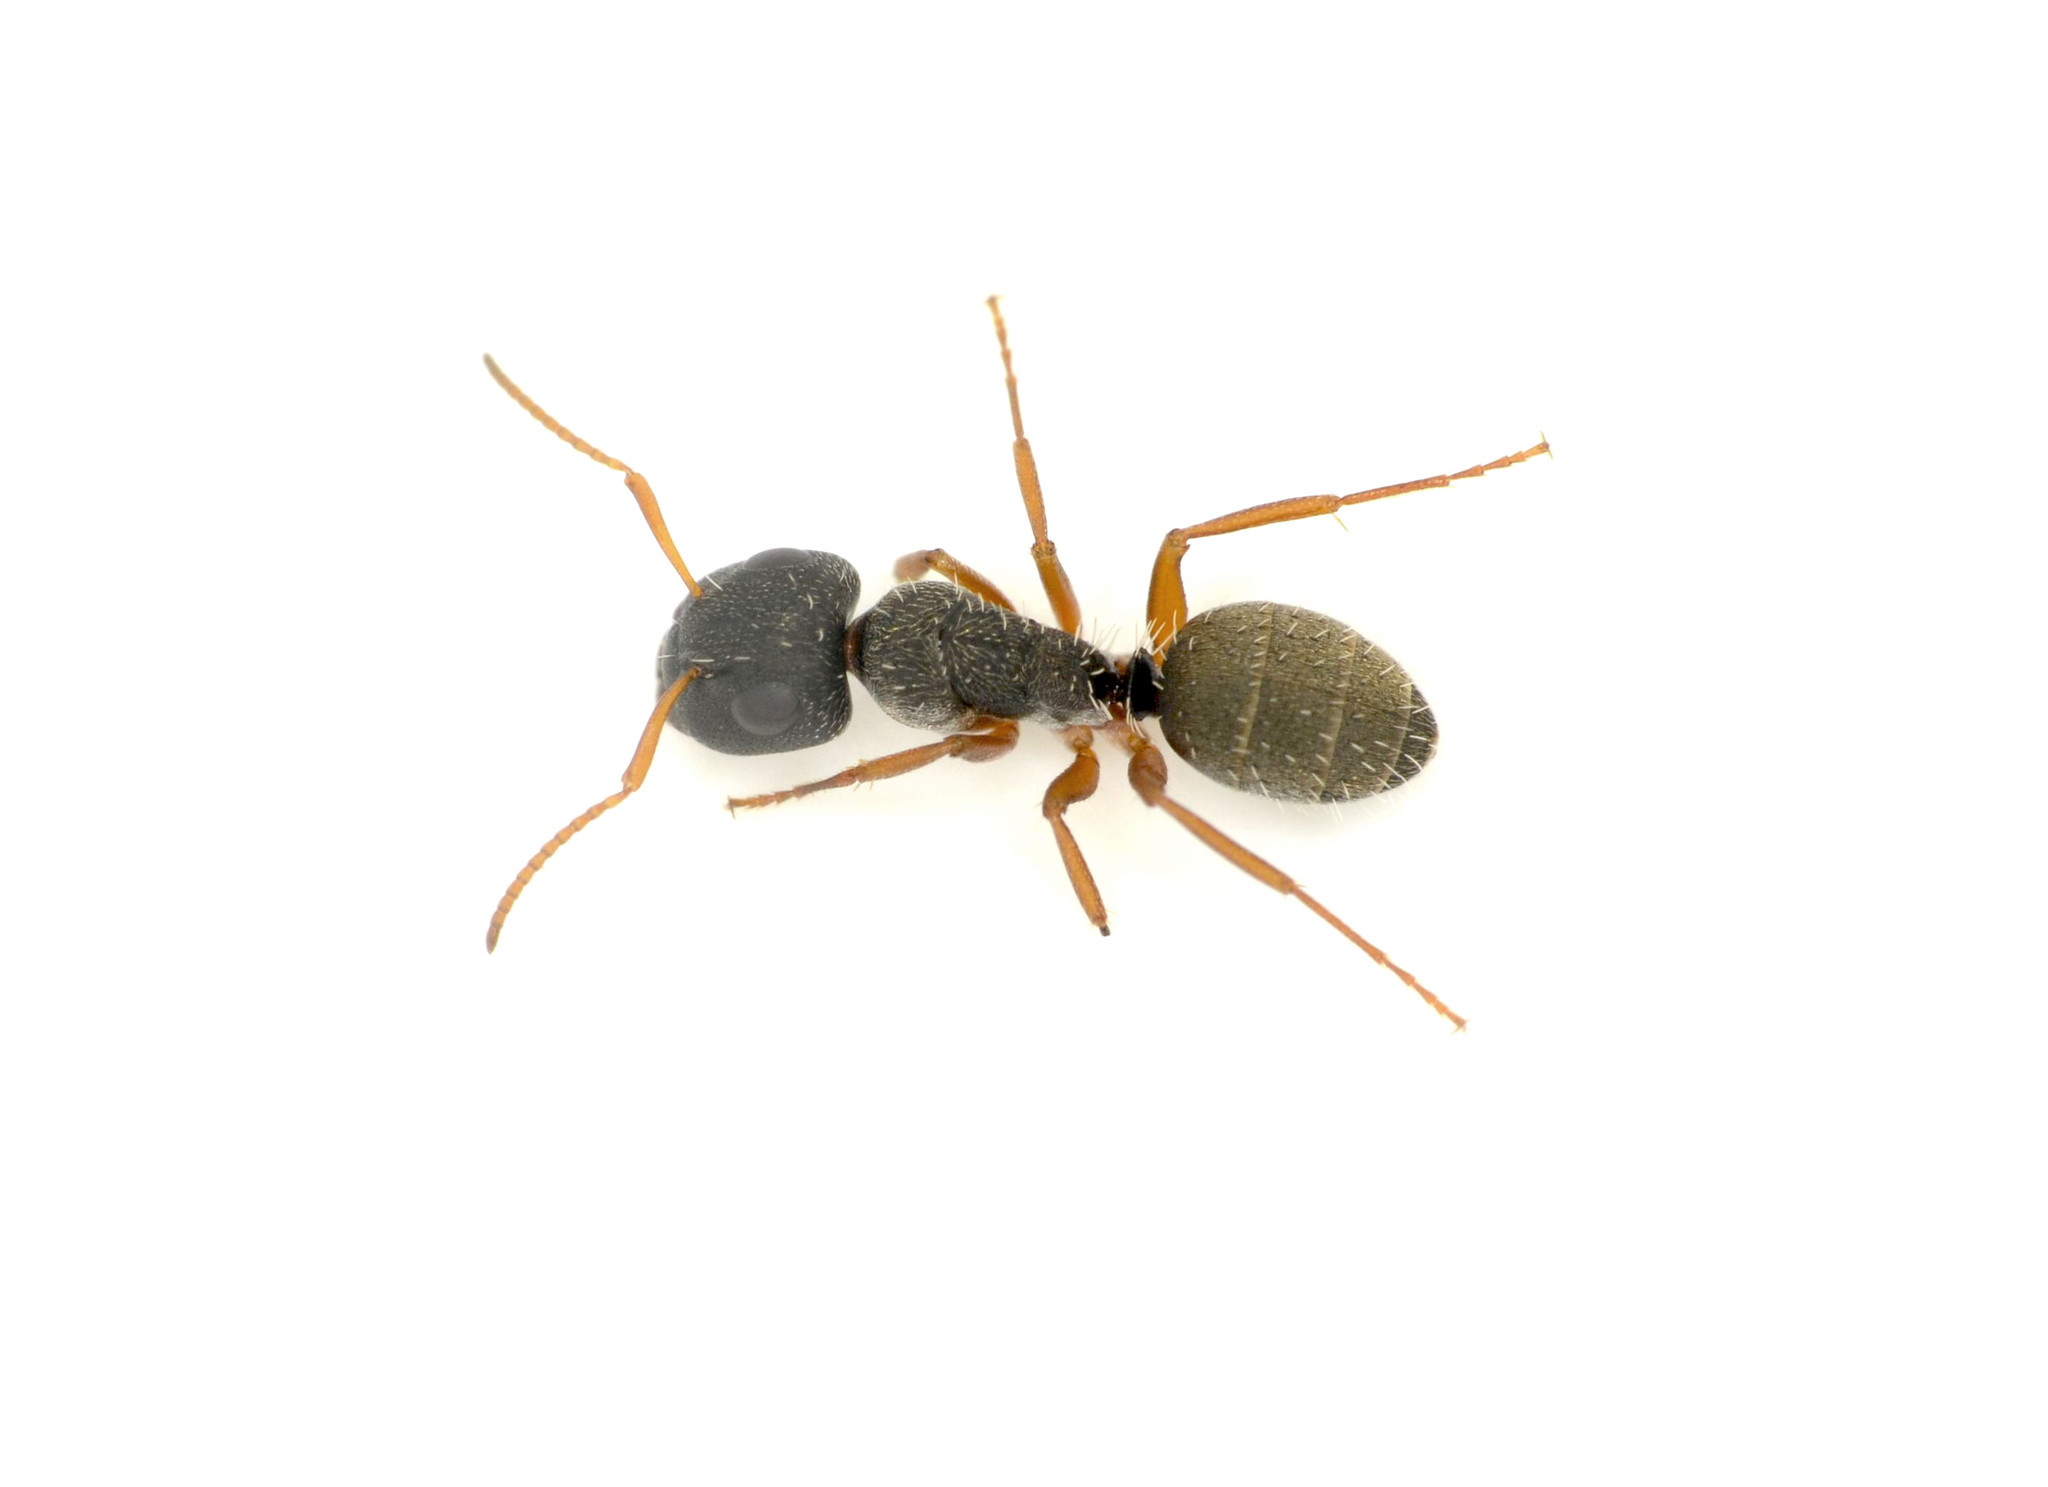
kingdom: Animalia
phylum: Arthropoda
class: Insecta
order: Hymenoptera
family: Formicidae
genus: Camponotus
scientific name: Camponotus orthodoxus
